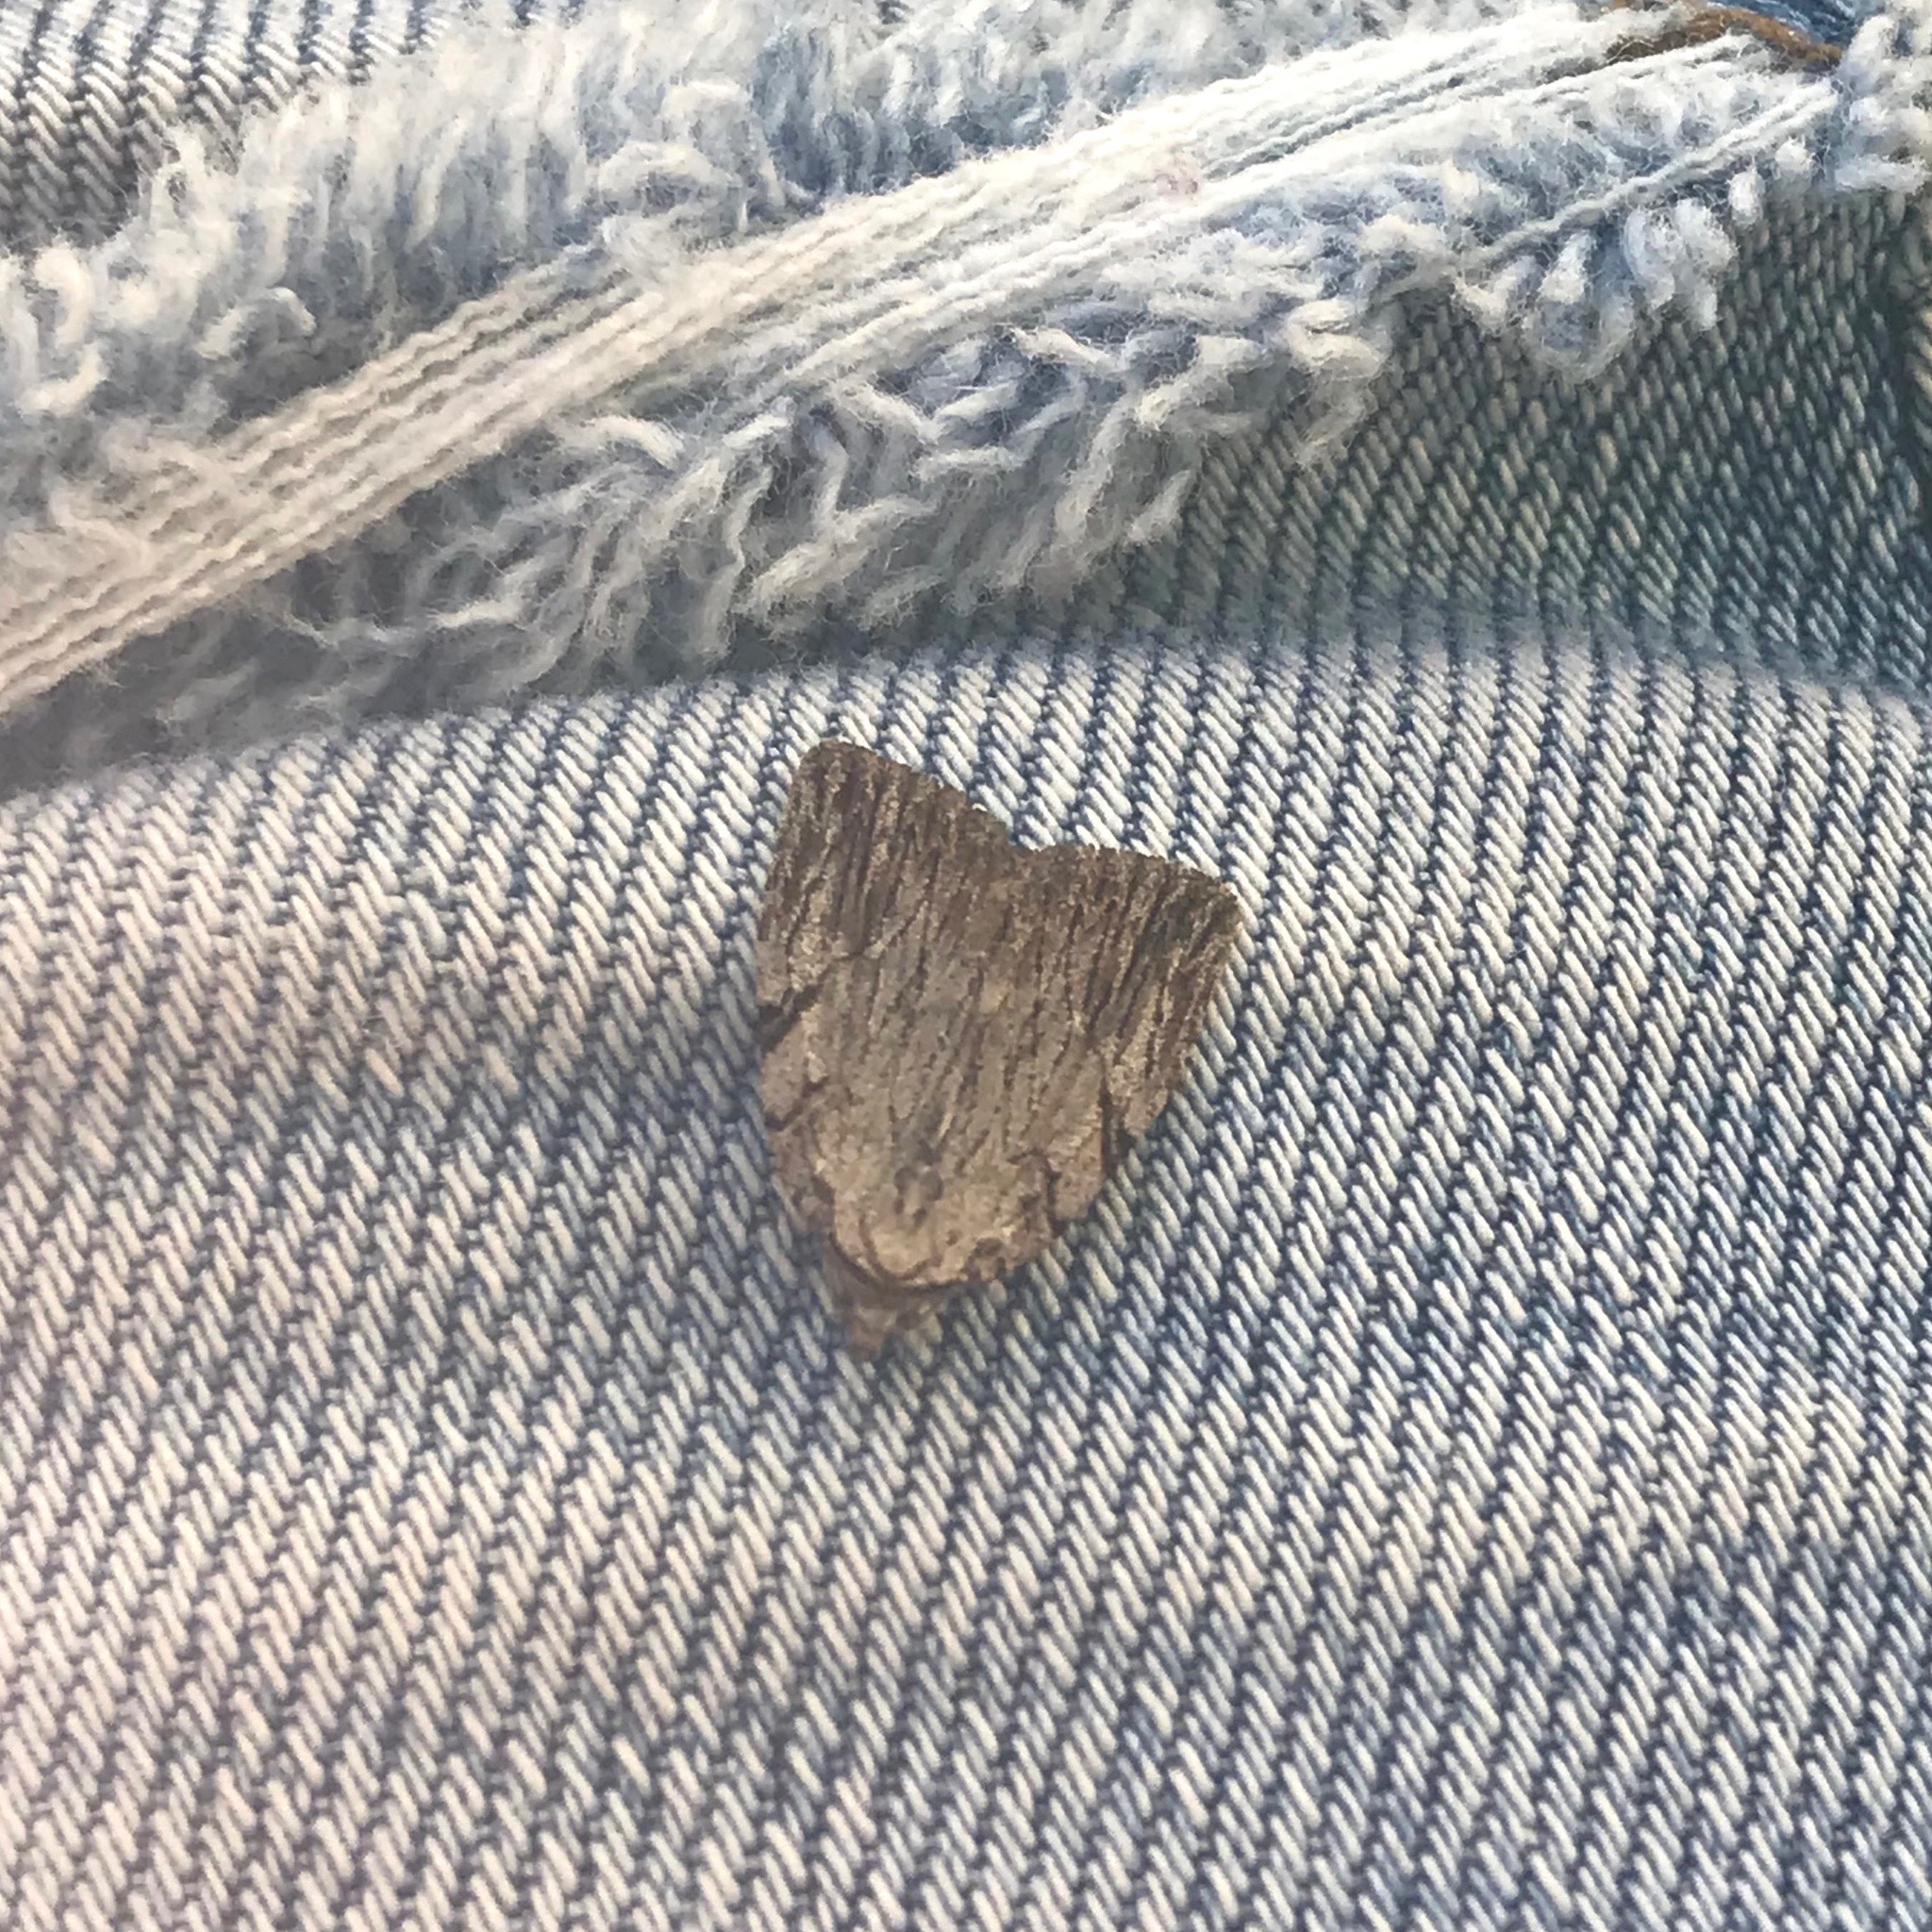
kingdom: Animalia
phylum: Arthropoda
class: Insecta
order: Lepidoptera
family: Noctuidae
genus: Balsa
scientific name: Balsa tristrigella
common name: Three-lined balsa moth
